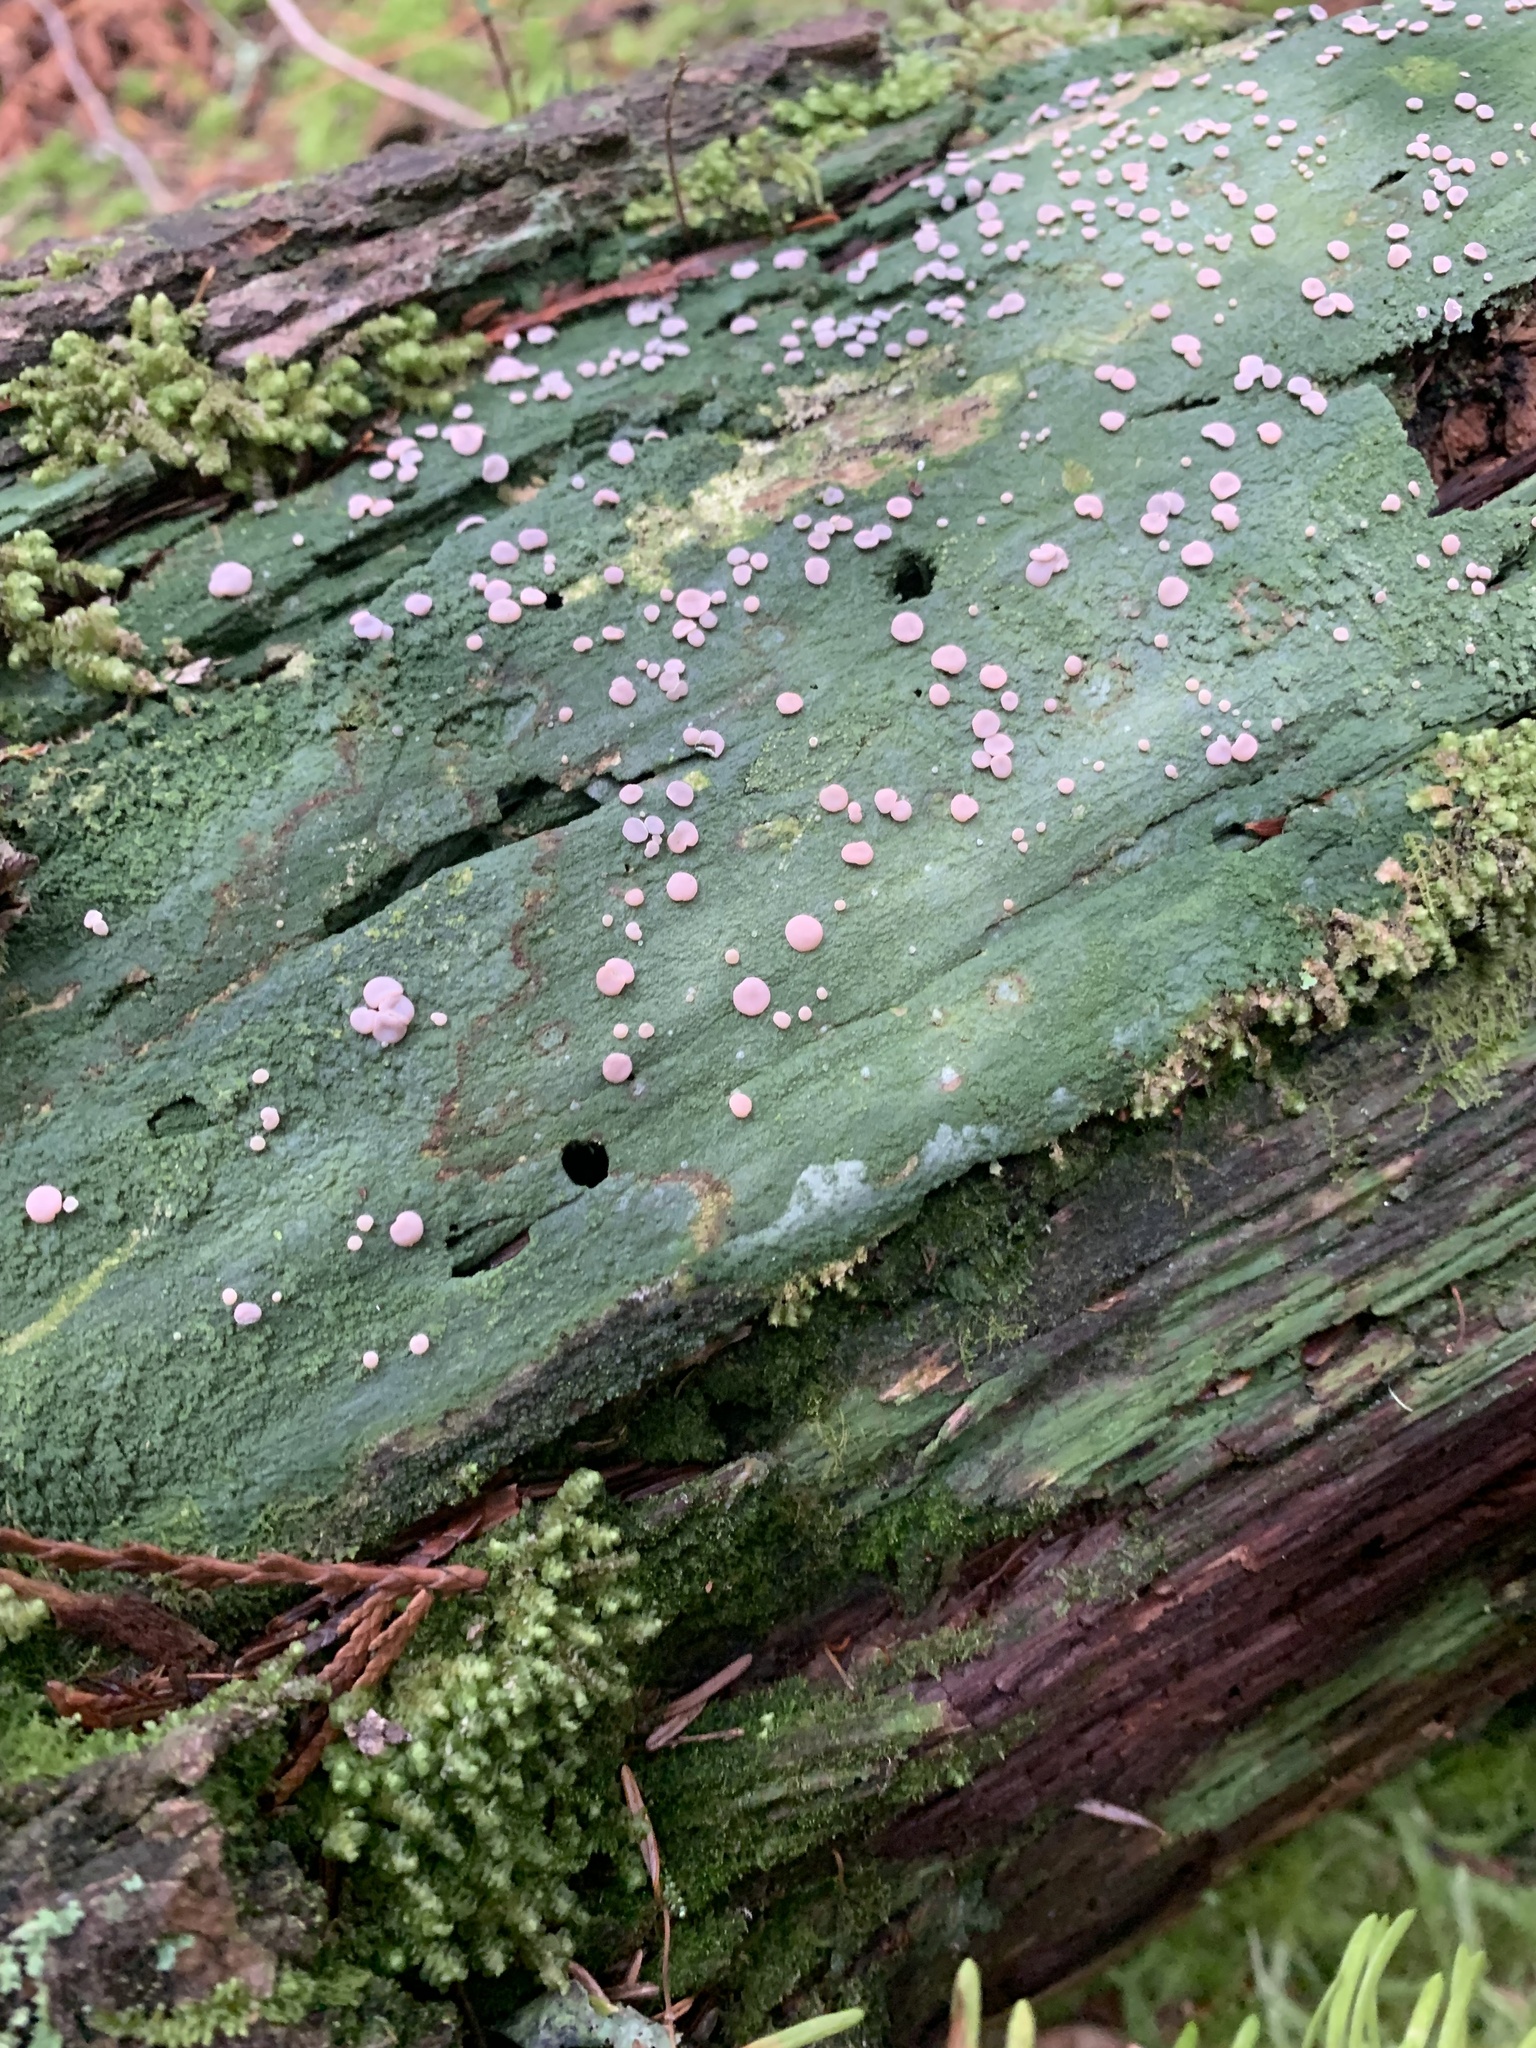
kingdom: Fungi
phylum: Ascomycota
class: Lecanoromycetes
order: Pertusariales
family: Icmadophilaceae
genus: Icmadophila
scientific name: Icmadophila ericetorum
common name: Candy lichen
